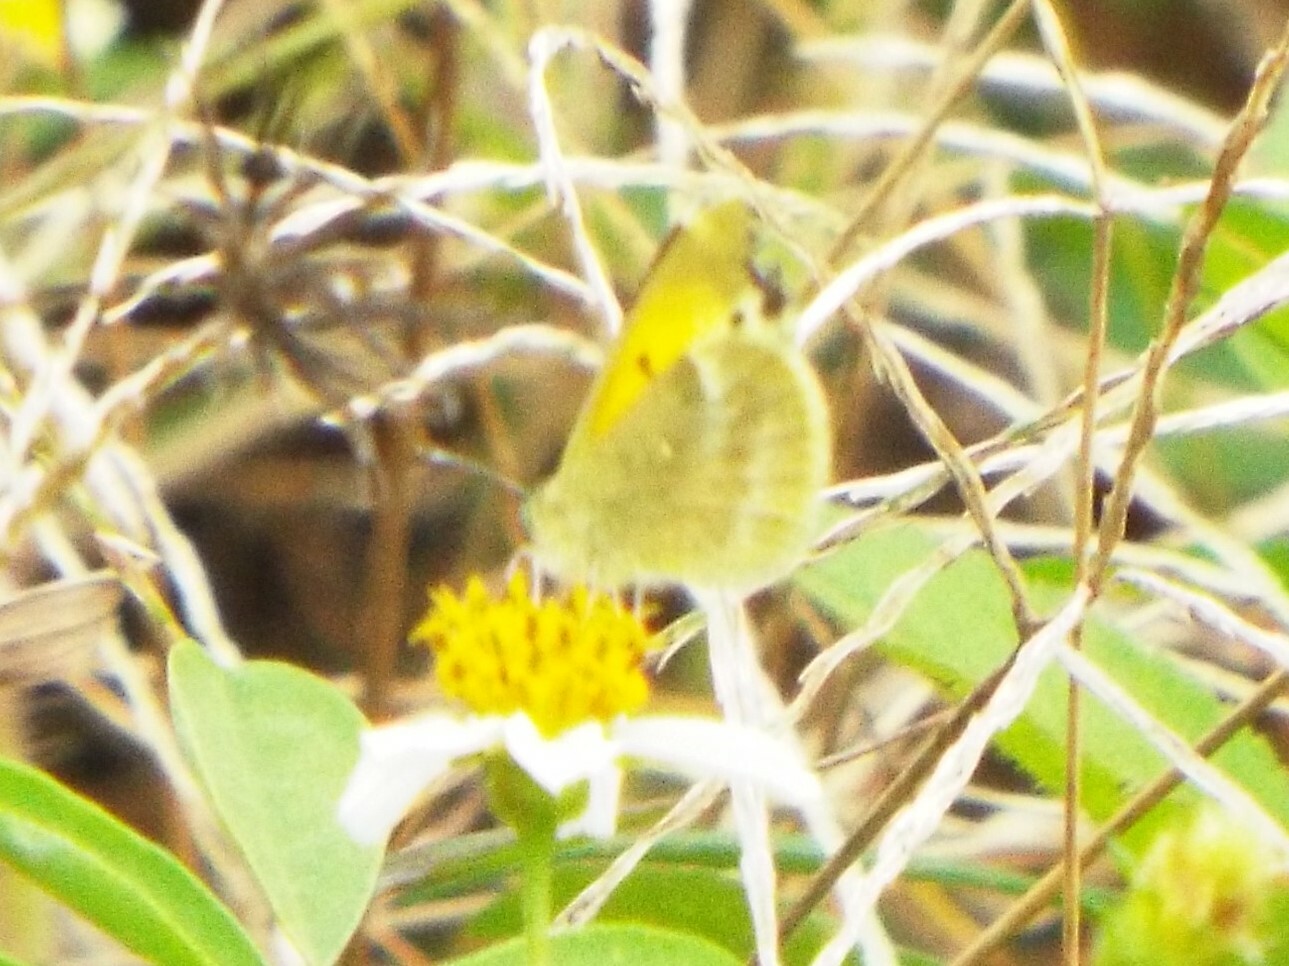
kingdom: Animalia
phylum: Arthropoda
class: Insecta
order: Lepidoptera
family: Pieridae
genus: Nathalis
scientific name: Nathalis iole
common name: Dainty sulphur
